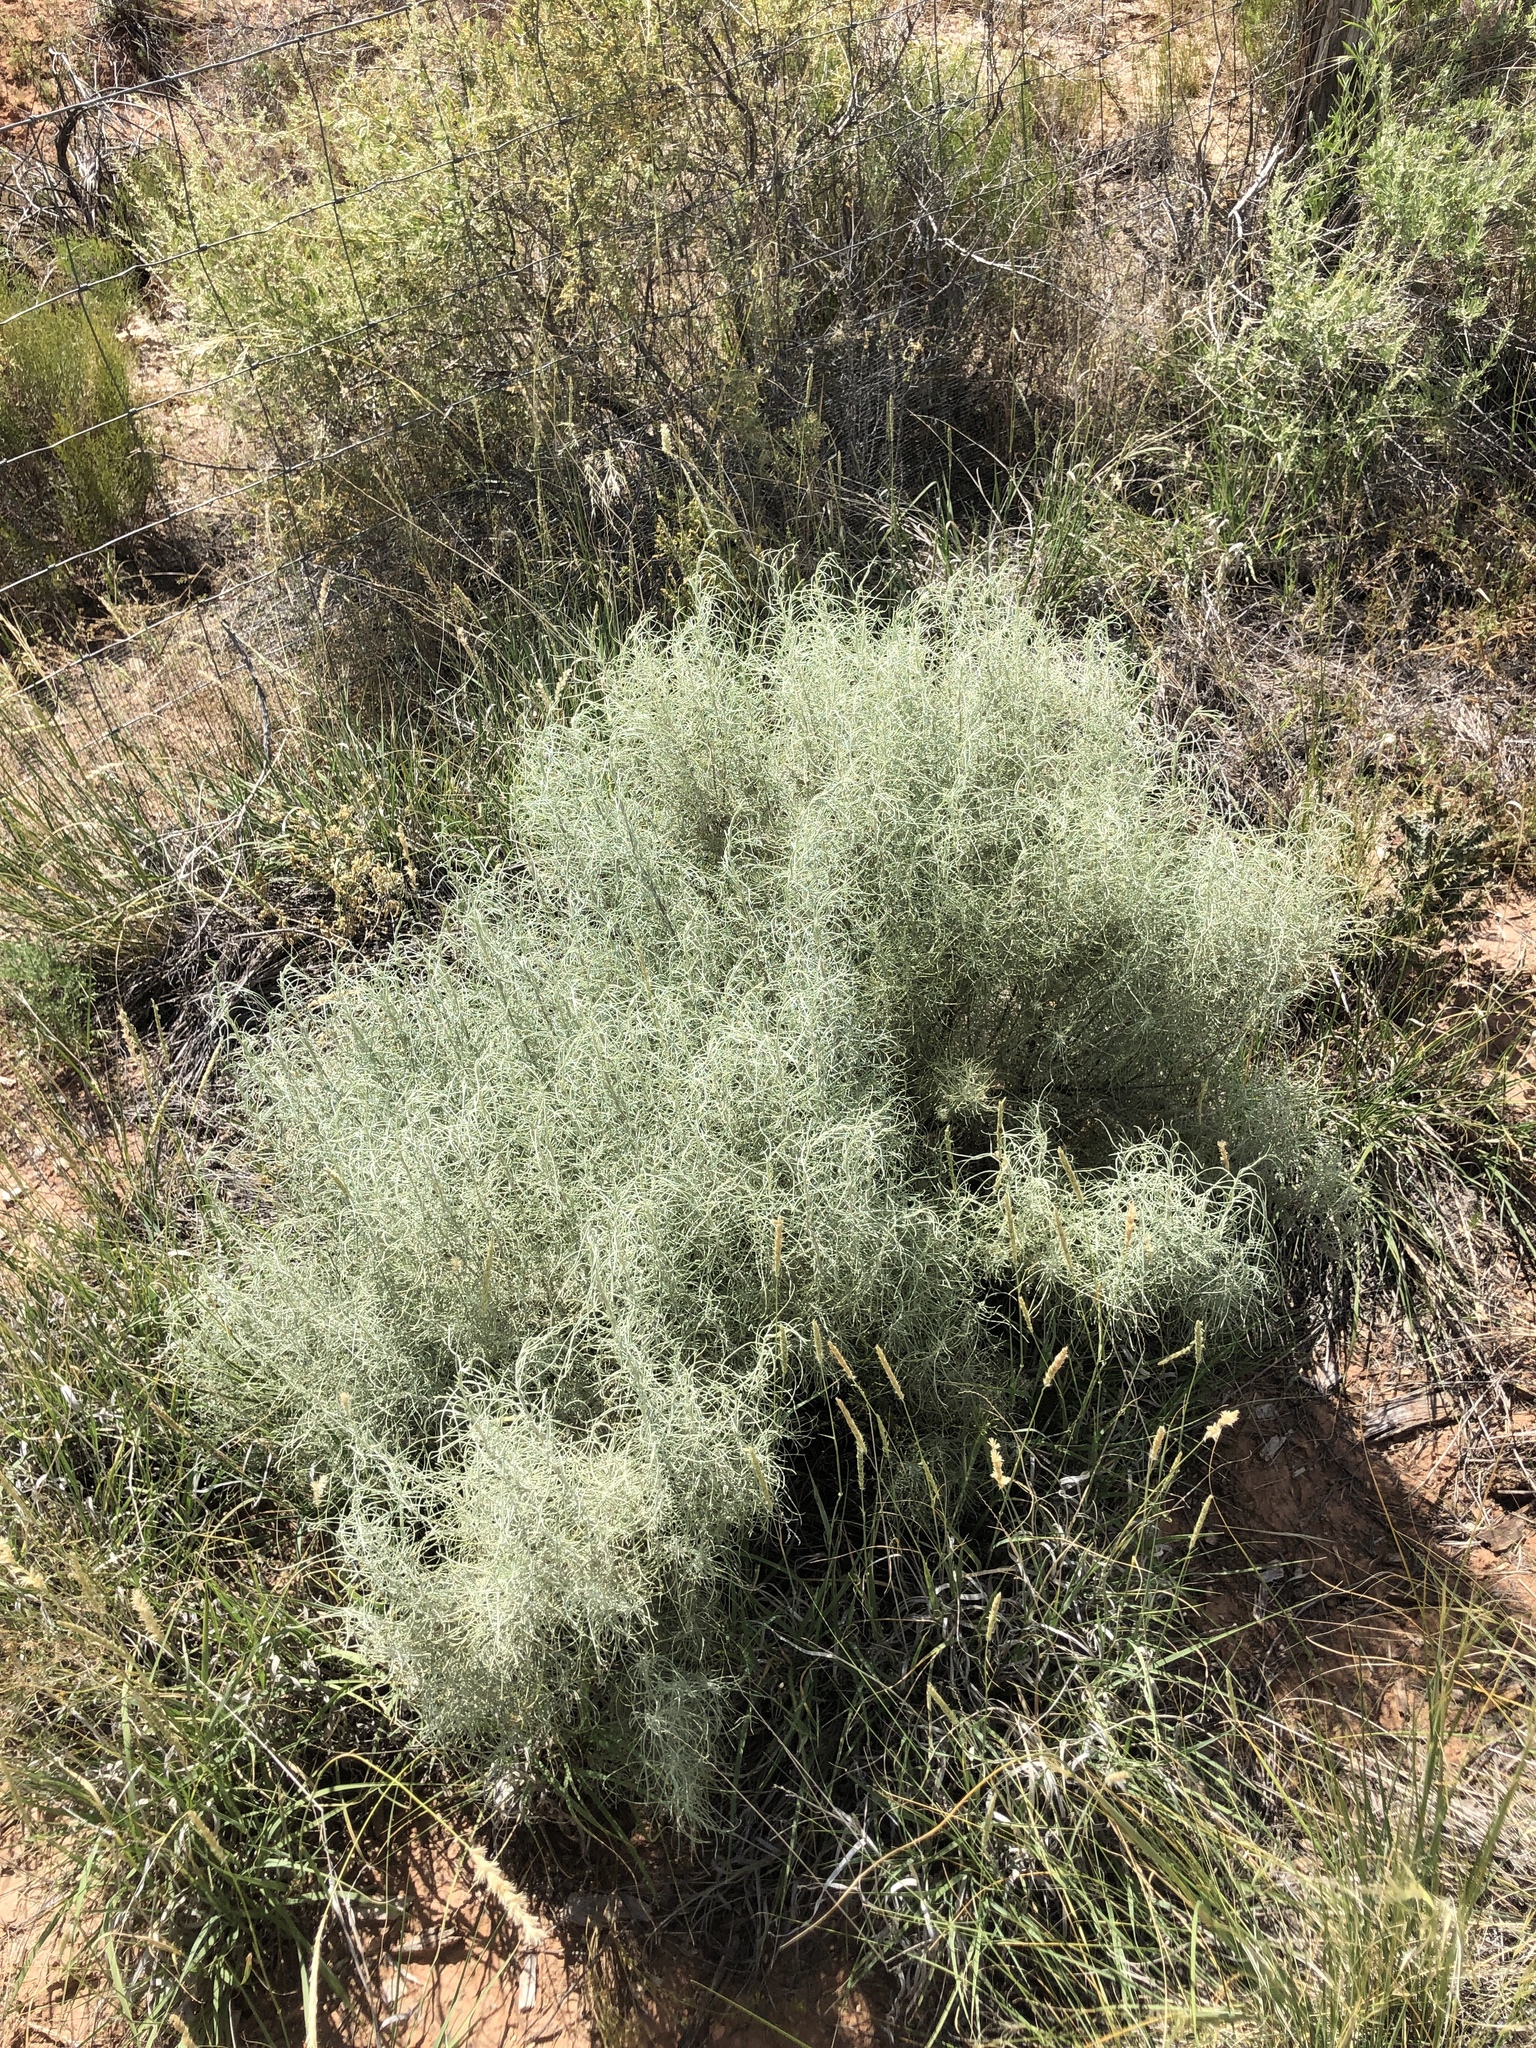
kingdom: Plantae
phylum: Tracheophyta
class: Magnoliopsida
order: Asterales
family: Asteraceae
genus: Artemisia
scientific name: Artemisia filifolia
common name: Sand-sage
